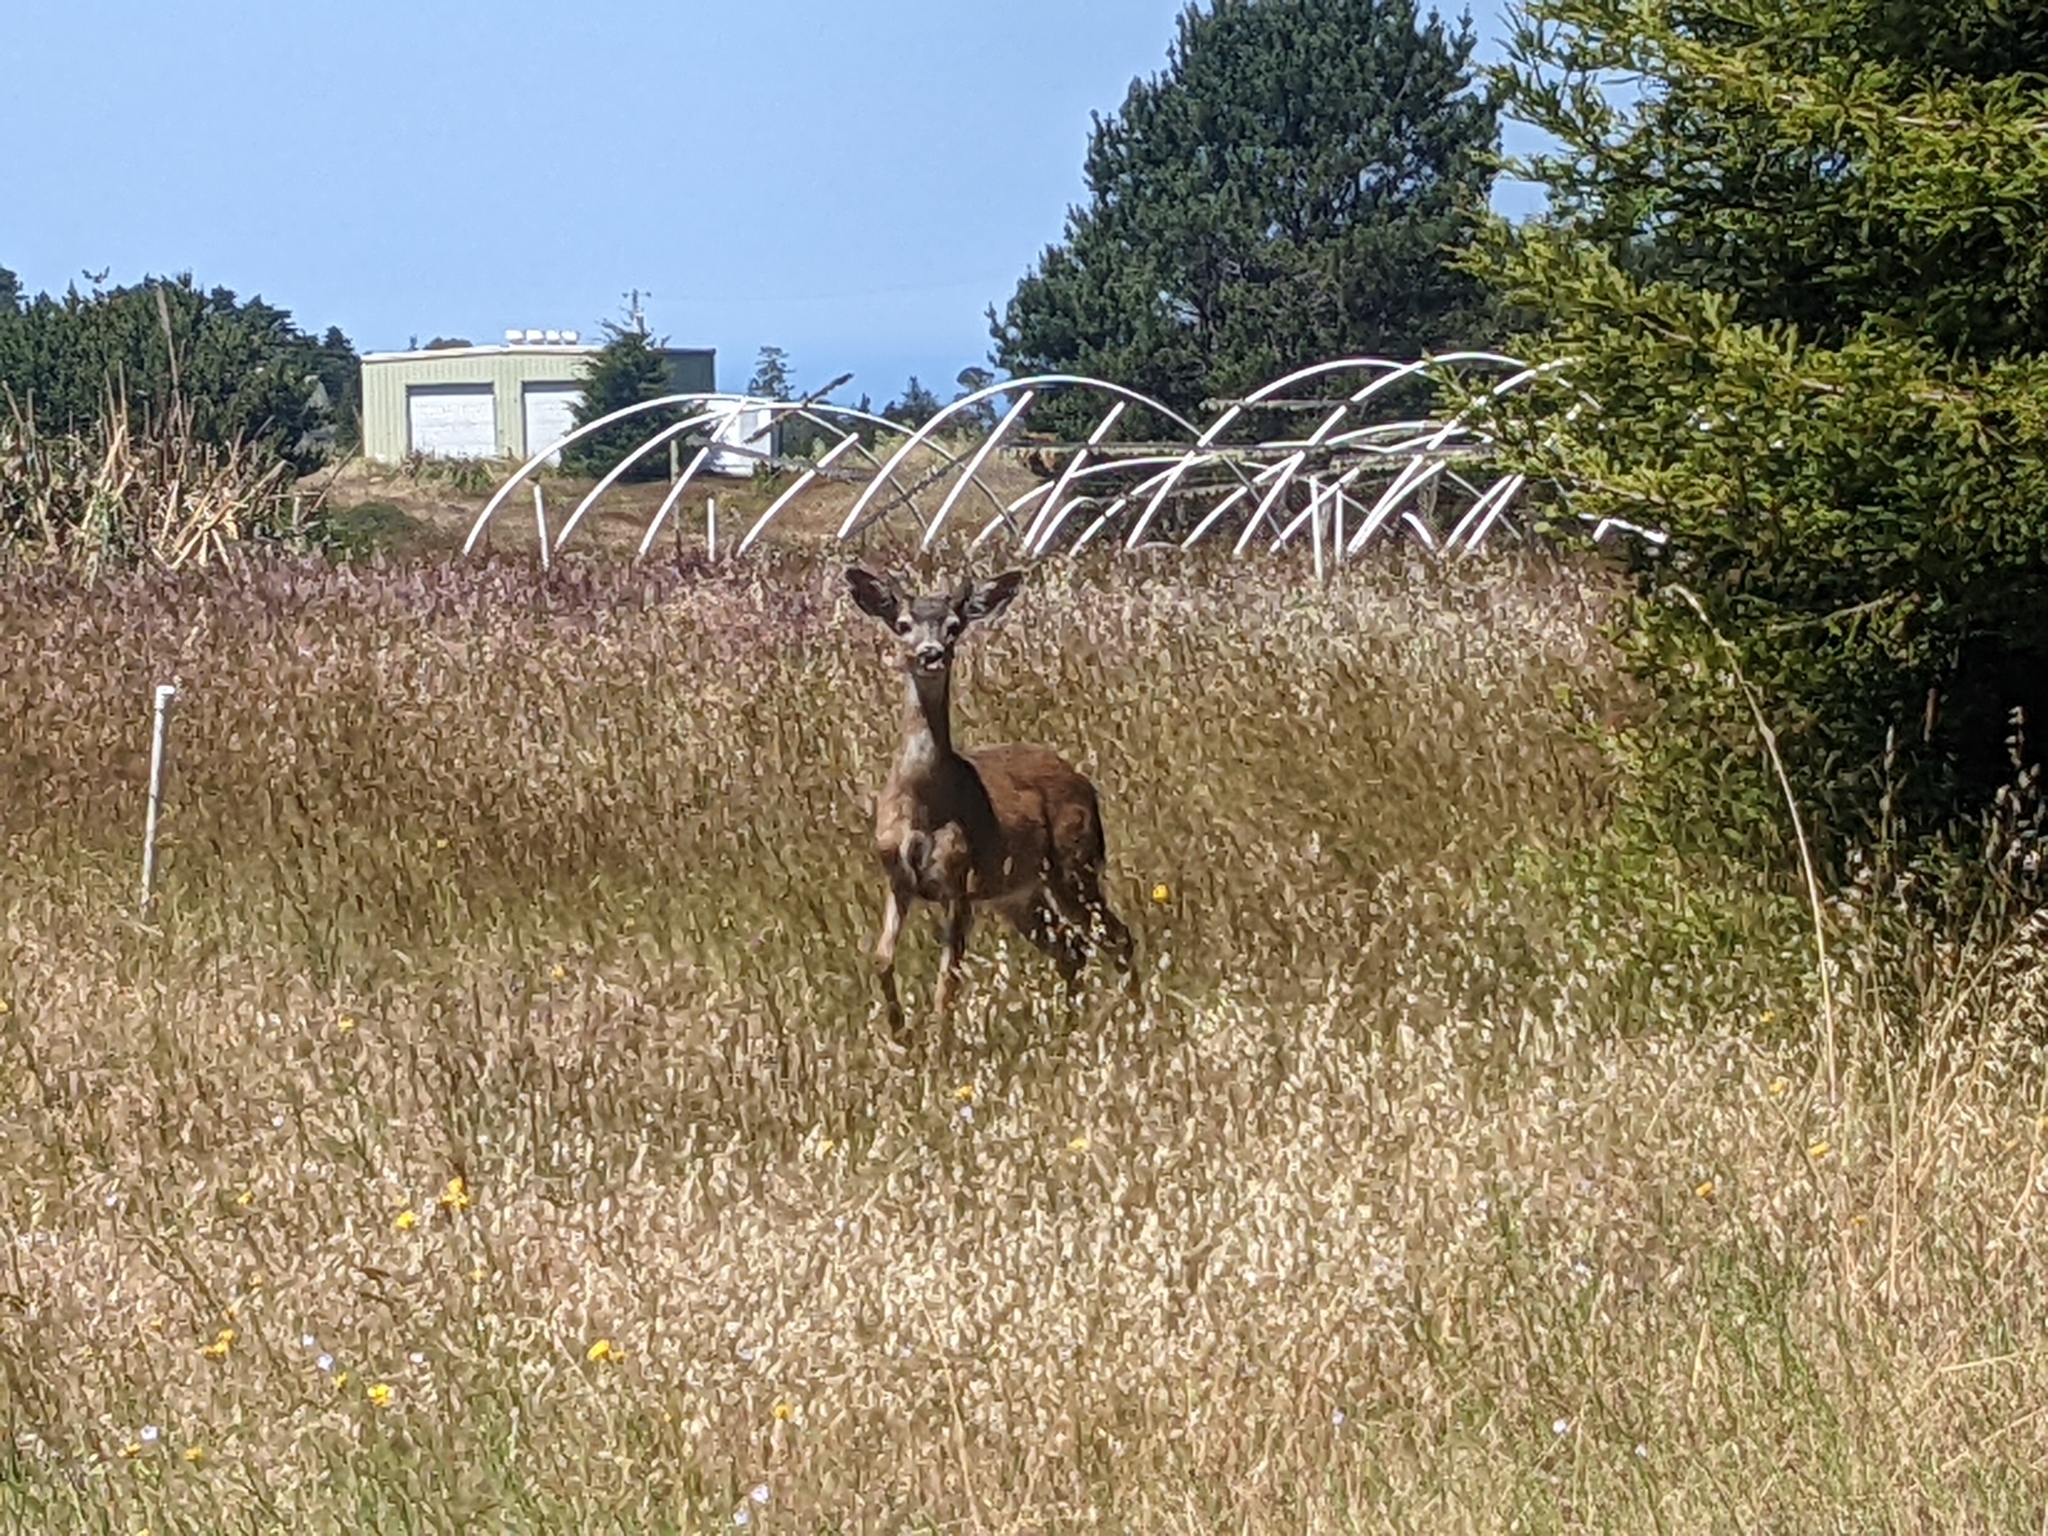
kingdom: Animalia
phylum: Chordata
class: Mammalia
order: Artiodactyla
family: Cervidae
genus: Odocoileus
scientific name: Odocoileus hemionus
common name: Mule deer
